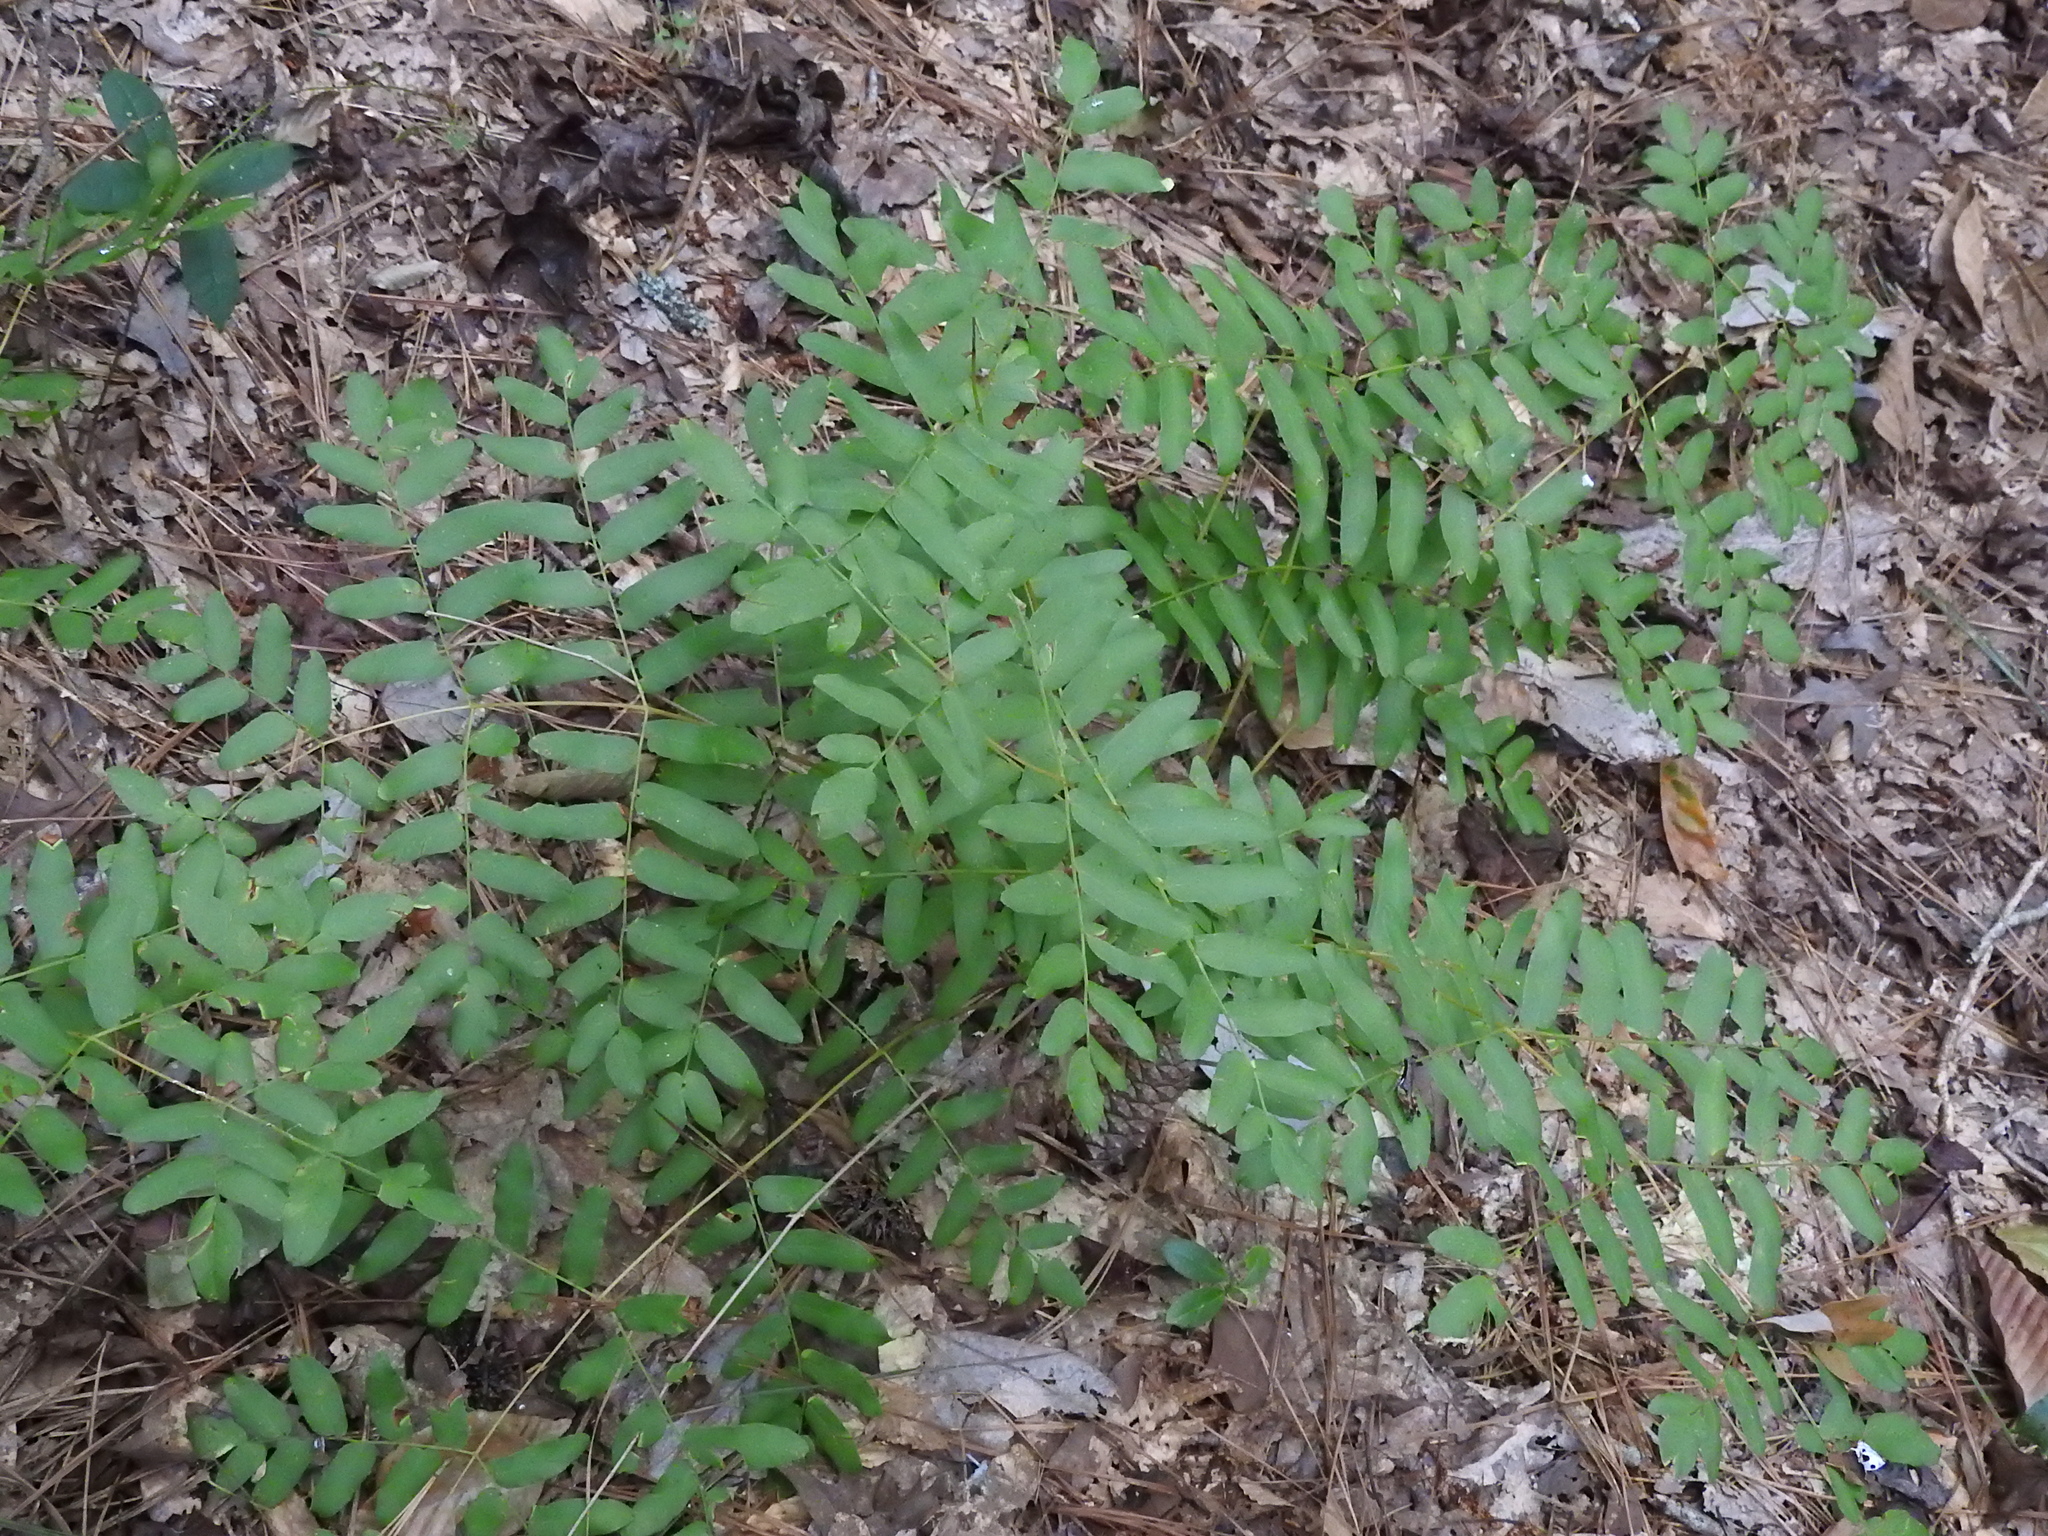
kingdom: Plantae
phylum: Tracheophyta
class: Polypodiopsida
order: Osmundales
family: Osmundaceae
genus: Osmunda
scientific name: Osmunda spectabilis
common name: American royal fern
